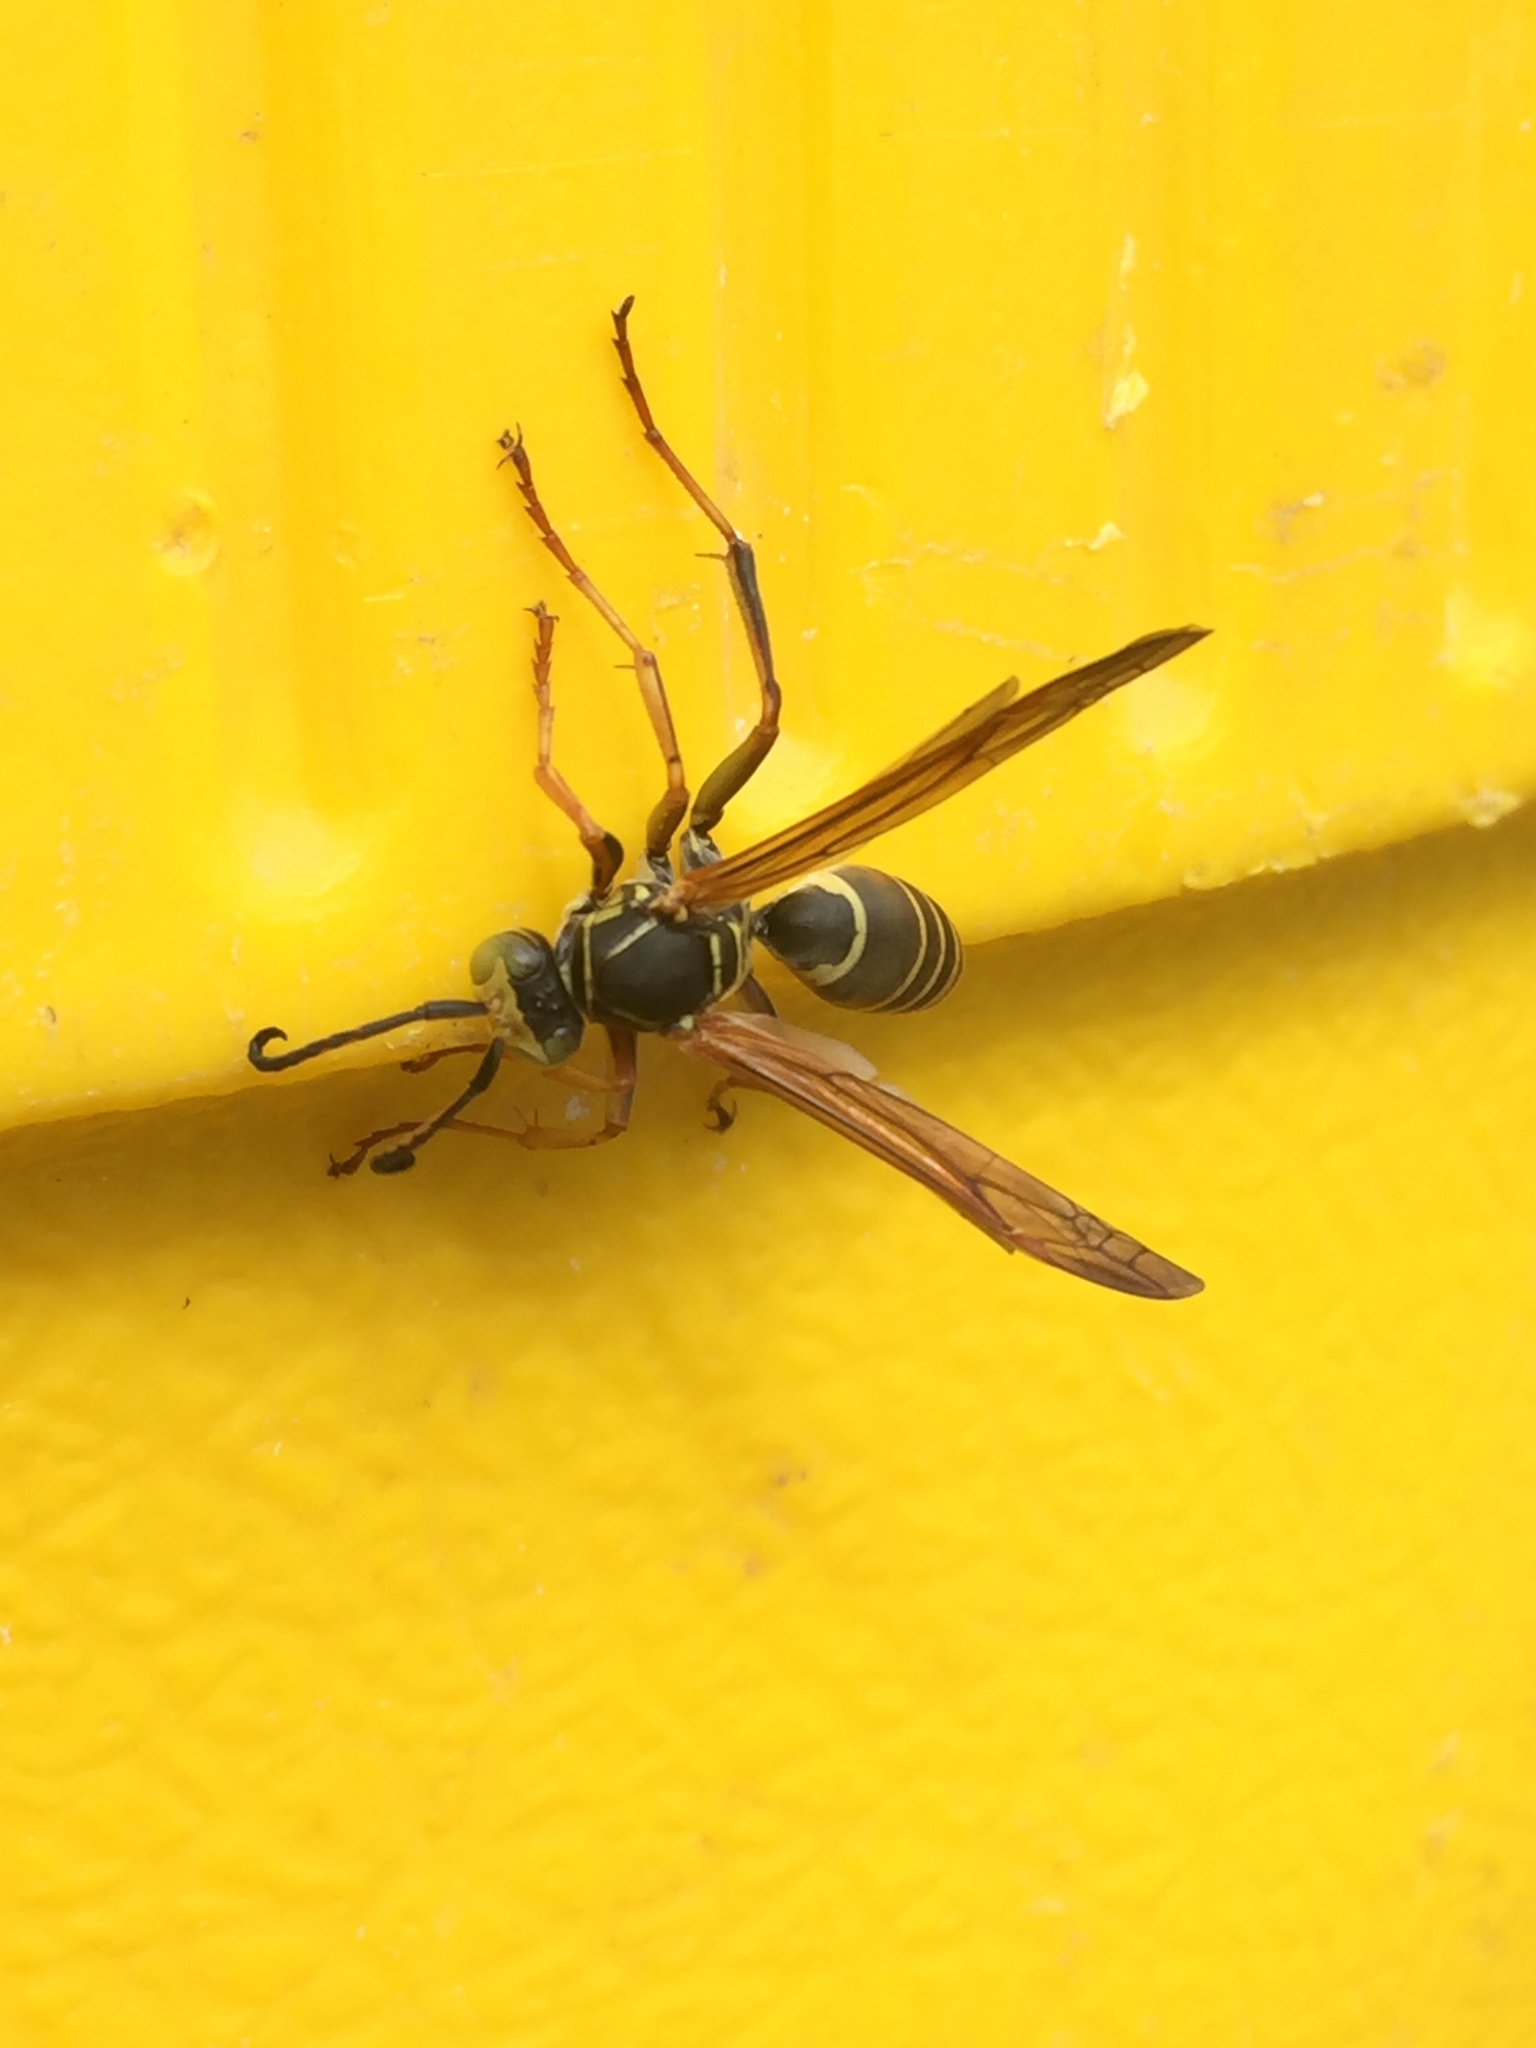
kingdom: Animalia
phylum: Arthropoda
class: Insecta
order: Hymenoptera
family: Eumenidae
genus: Polistes
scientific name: Polistes fuscatus
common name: Dark paper wasp
